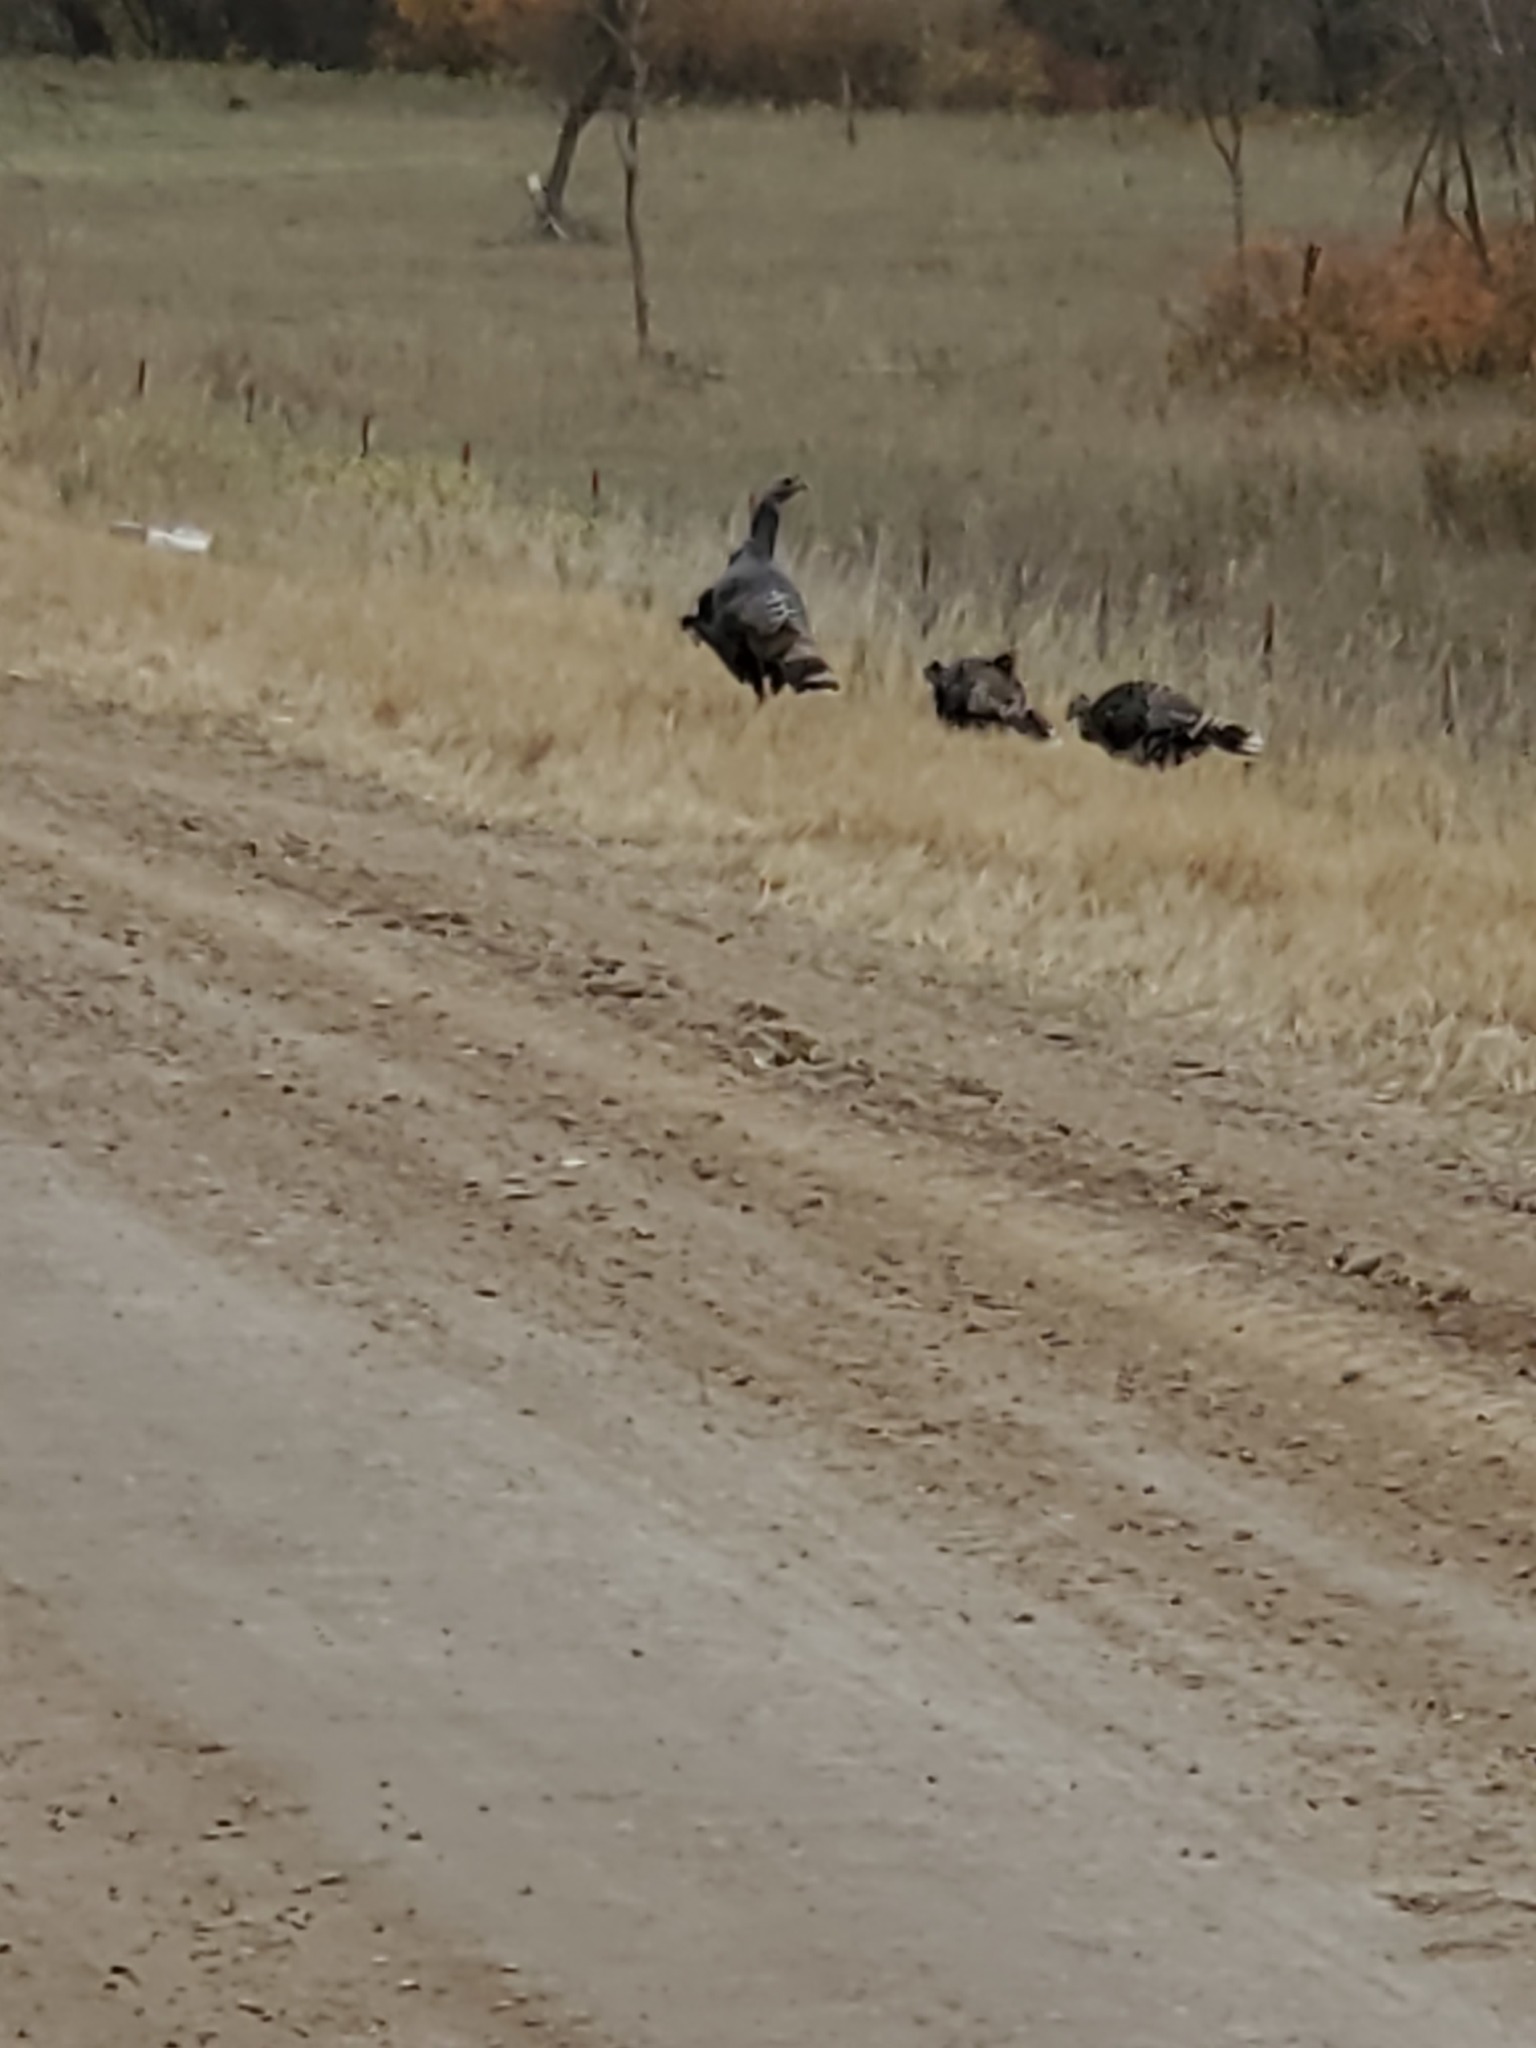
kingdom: Animalia
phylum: Chordata
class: Aves
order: Galliformes
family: Phasianidae
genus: Meleagris
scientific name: Meleagris gallopavo
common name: Wild turkey
